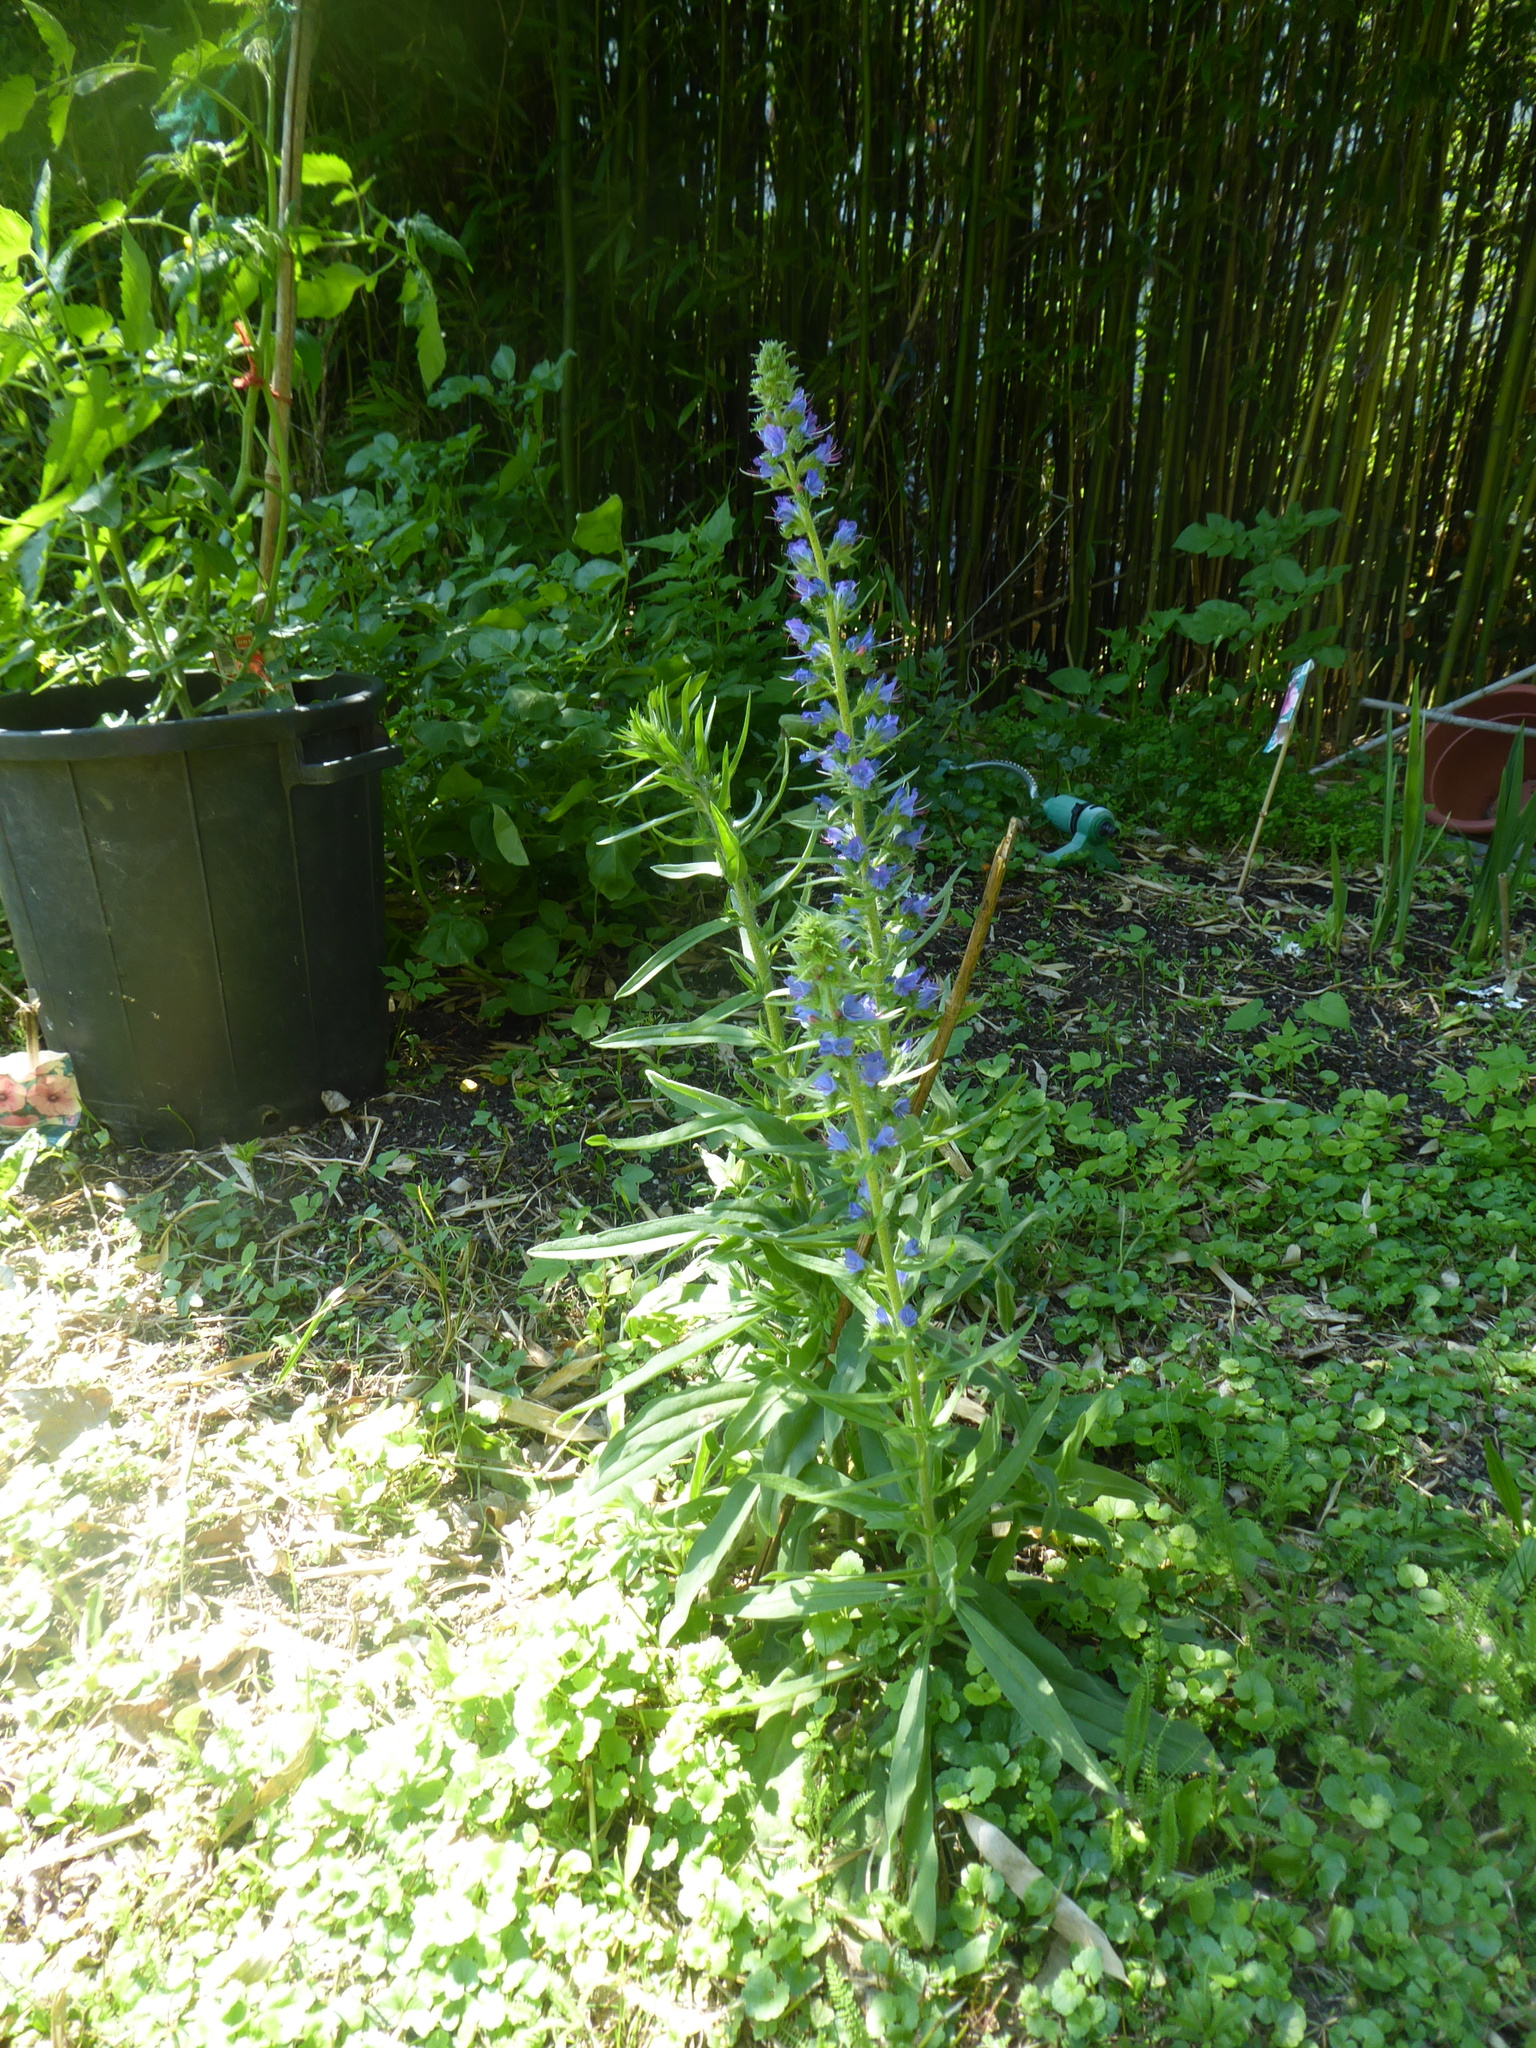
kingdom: Plantae
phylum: Tracheophyta
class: Magnoliopsida
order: Boraginales
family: Boraginaceae
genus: Echium
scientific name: Echium vulgare
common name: Common viper's bugloss
